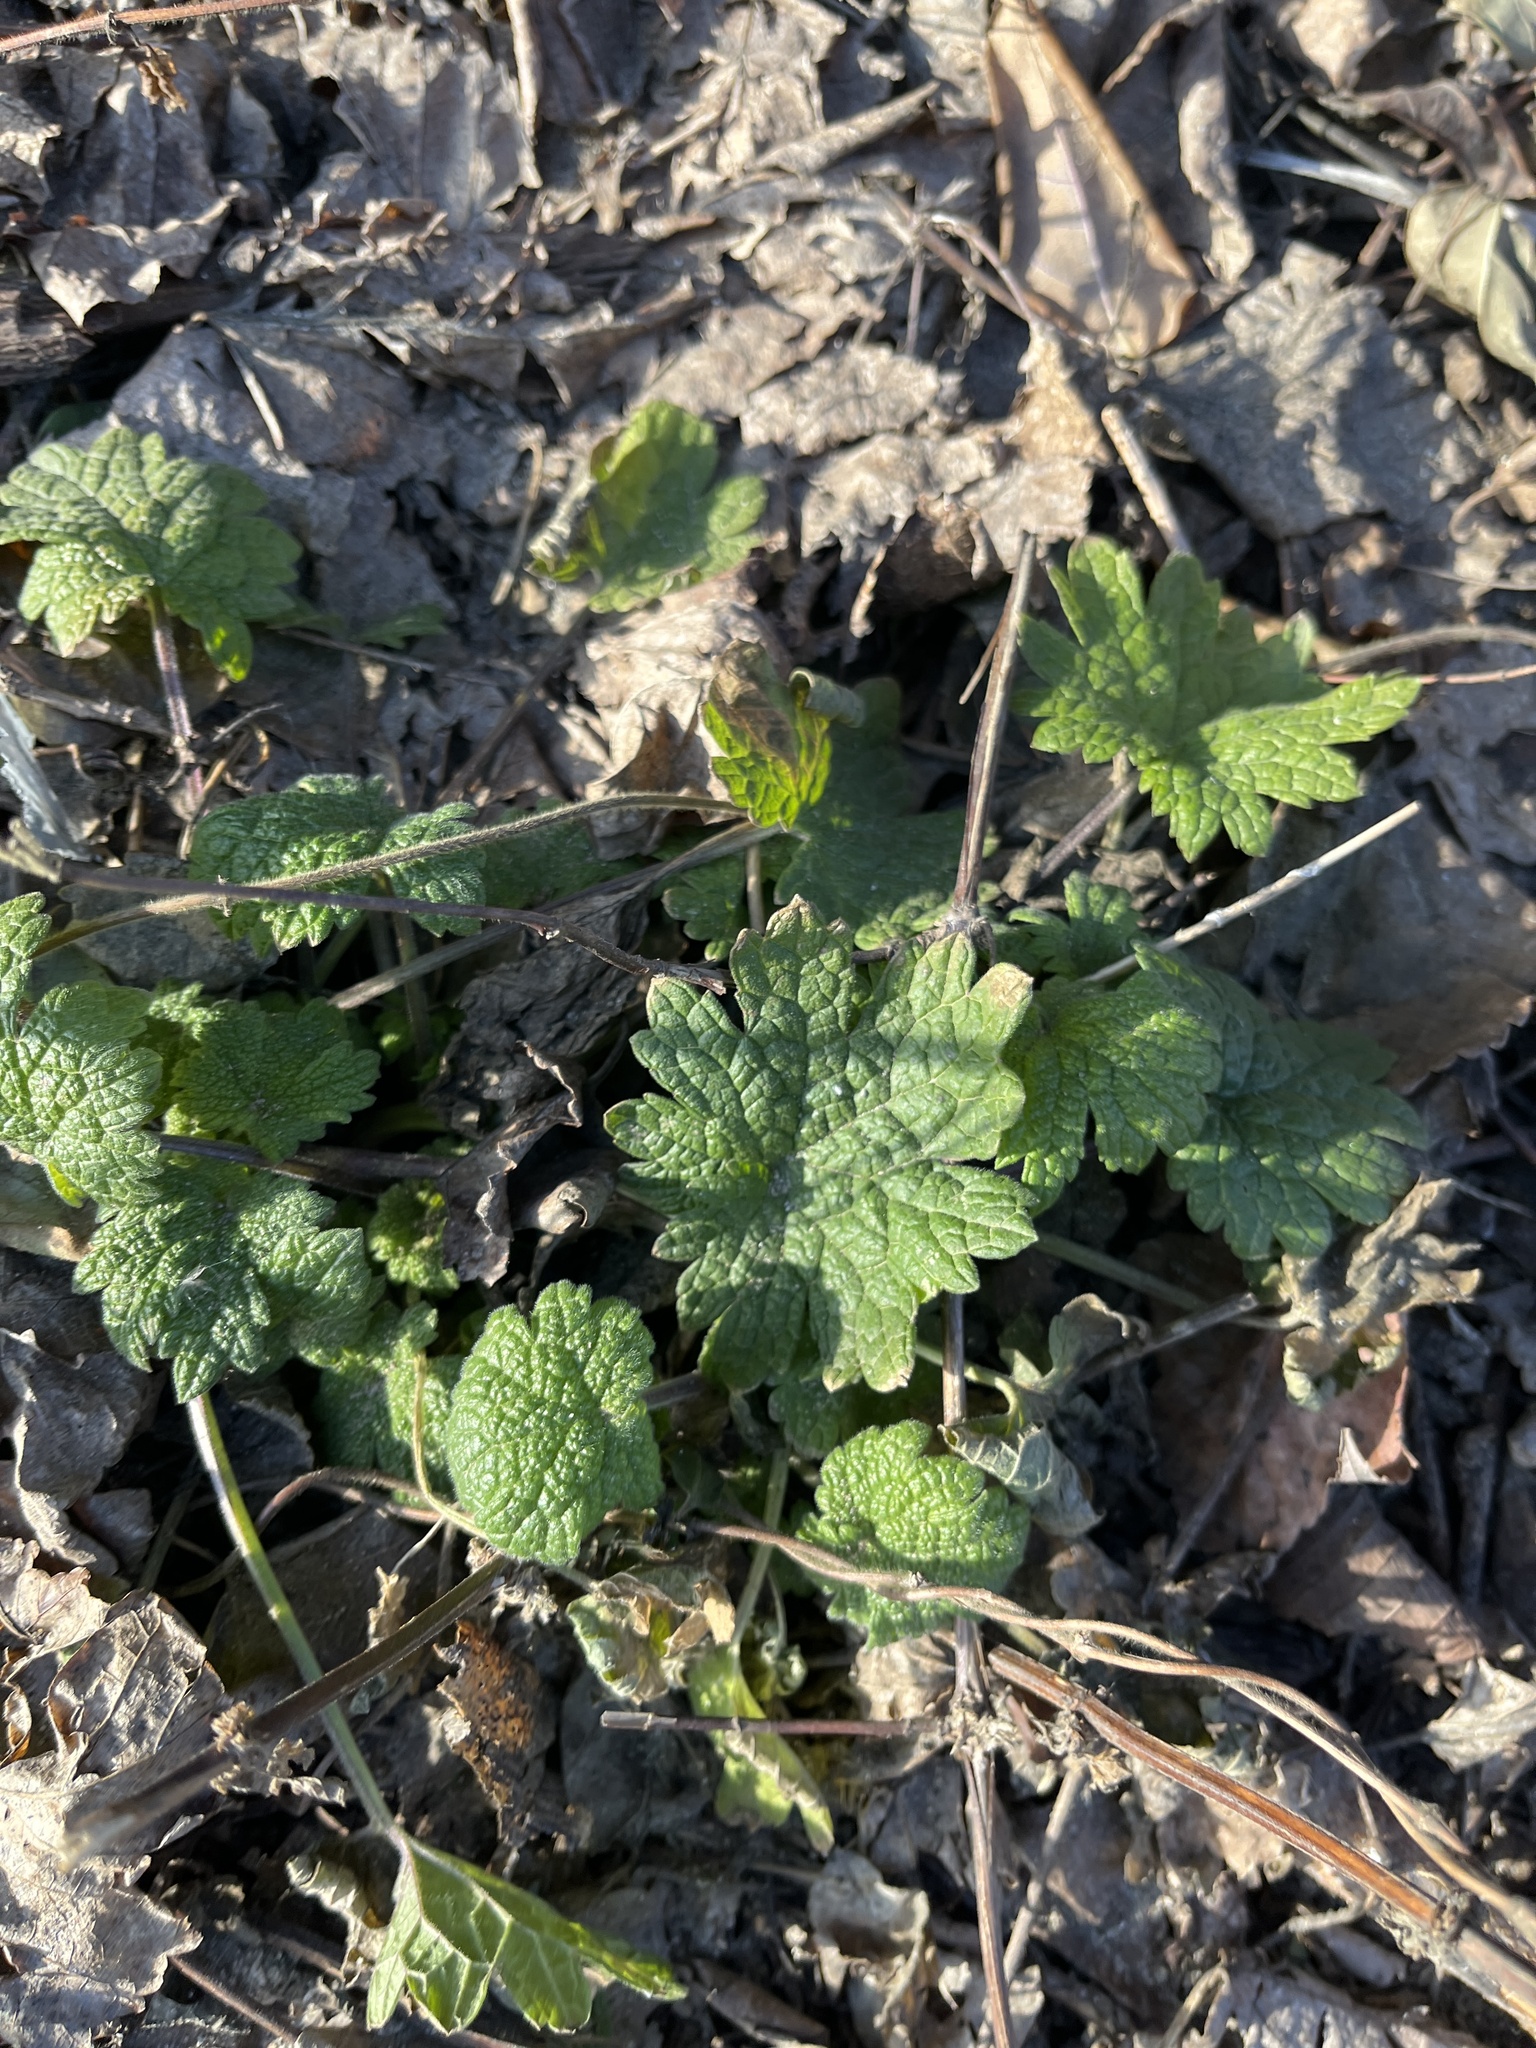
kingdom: Plantae
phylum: Tracheophyta
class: Magnoliopsida
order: Lamiales
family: Lamiaceae
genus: Leonurus
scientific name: Leonurus cardiaca
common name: Motherwort
